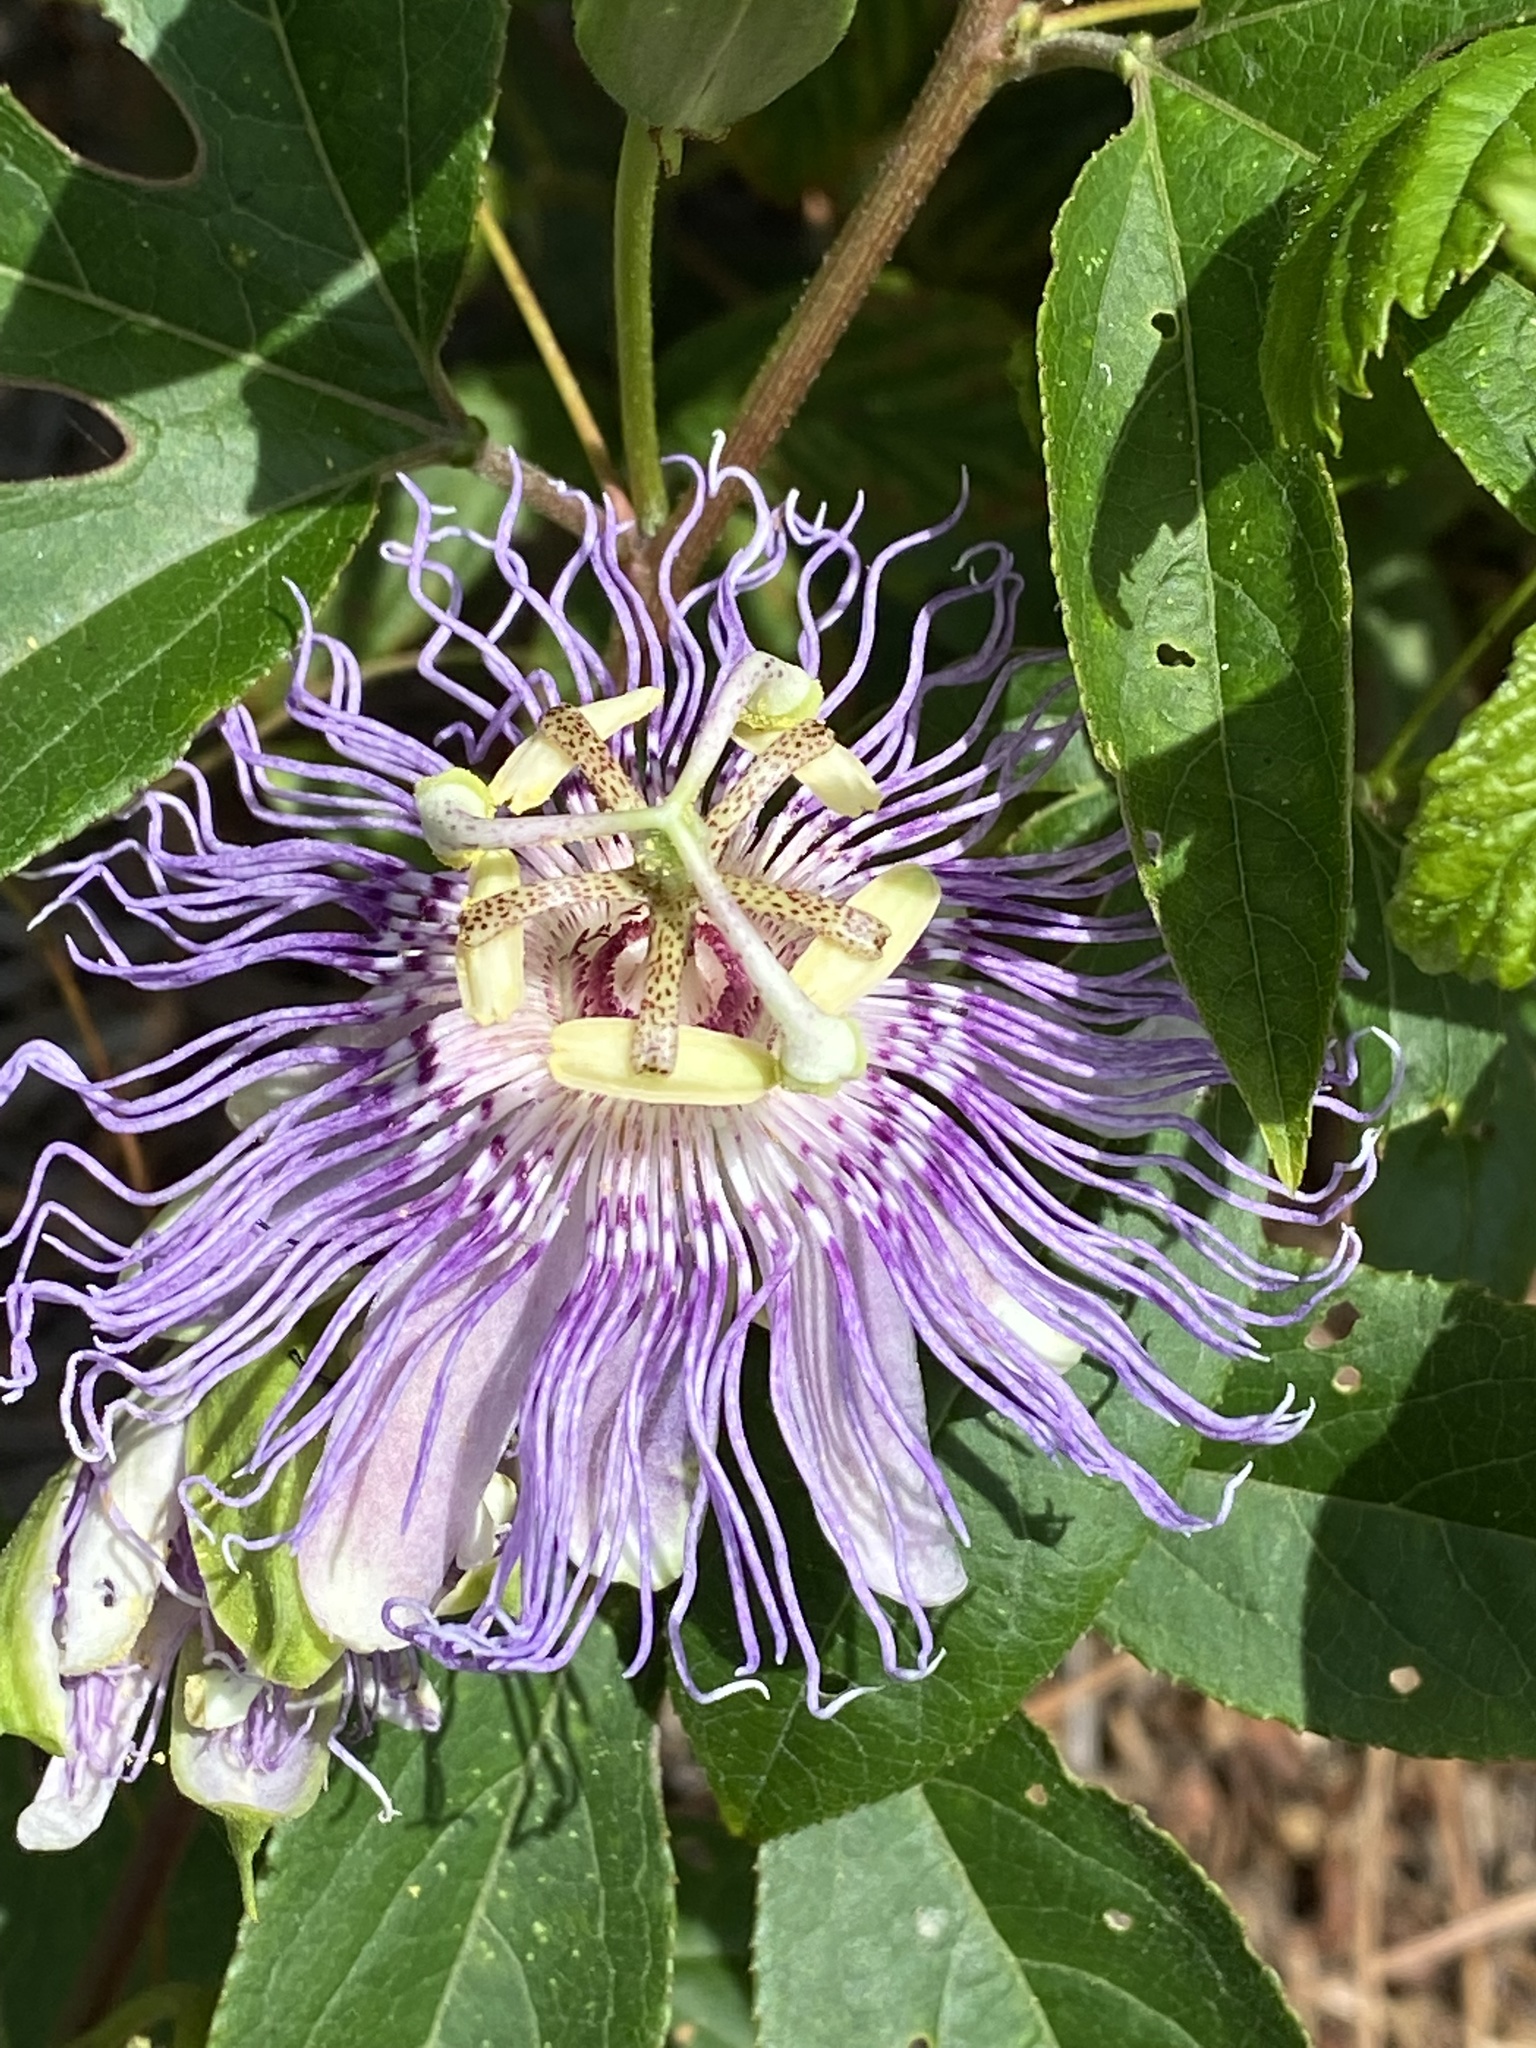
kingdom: Plantae
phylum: Tracheophyta
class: Magnoliopsida
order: Malpighiales
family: Passifloraceae
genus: Passiflora
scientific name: Passiflora incarnata
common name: Apricot-vine
